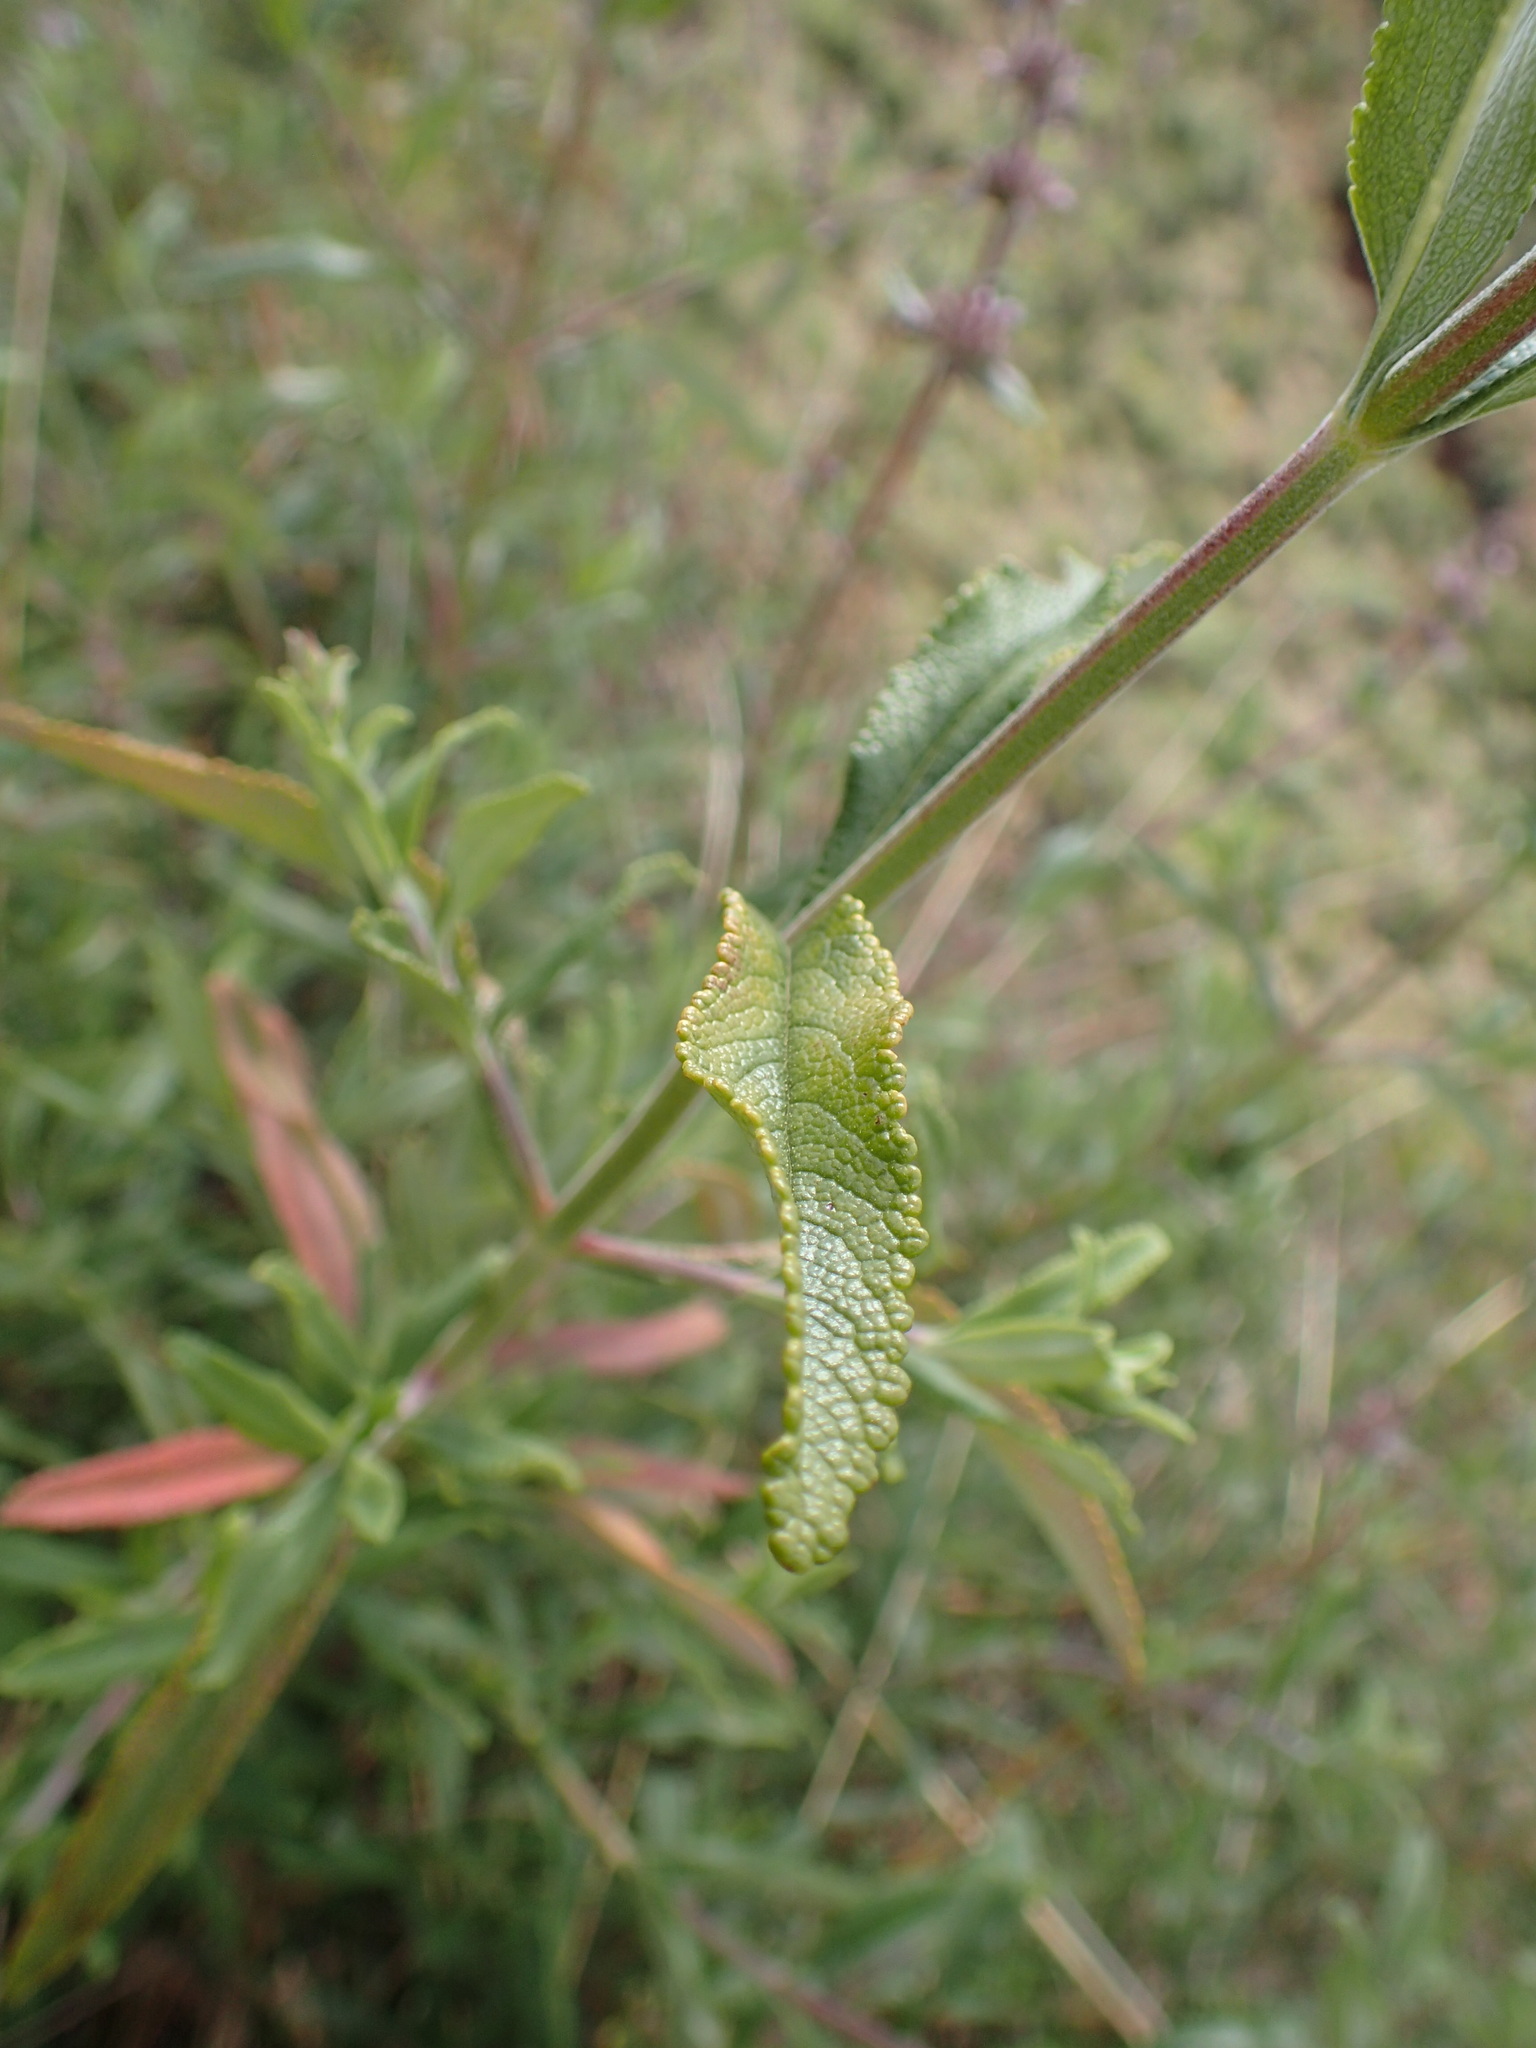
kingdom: Plantae
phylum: Tracheophyta
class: Magnoliopsida
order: Lamiales
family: Lamiaceae
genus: Salvia
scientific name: Salvia mellifera
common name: Black sage
